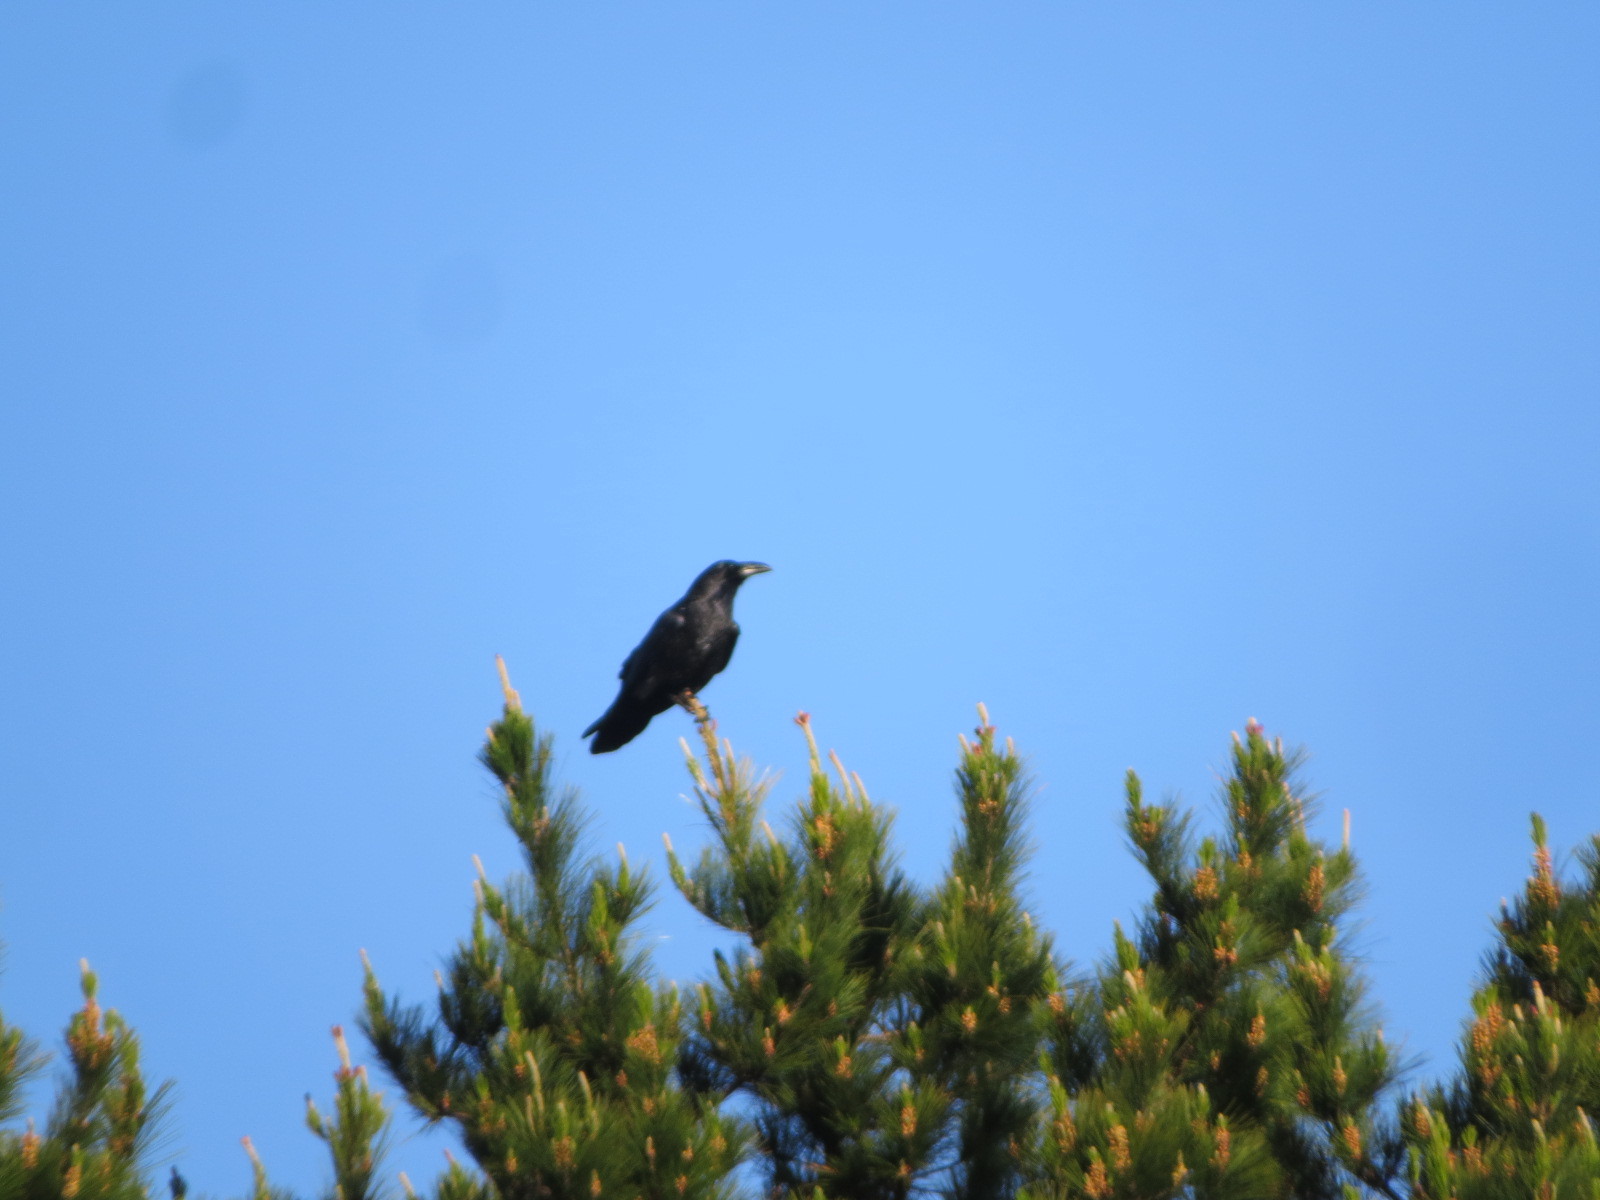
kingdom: Animalia
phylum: Chordata
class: Aves
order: Passeriformes
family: Corvidae
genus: Corvus
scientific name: Corvus corax
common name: Common raven
